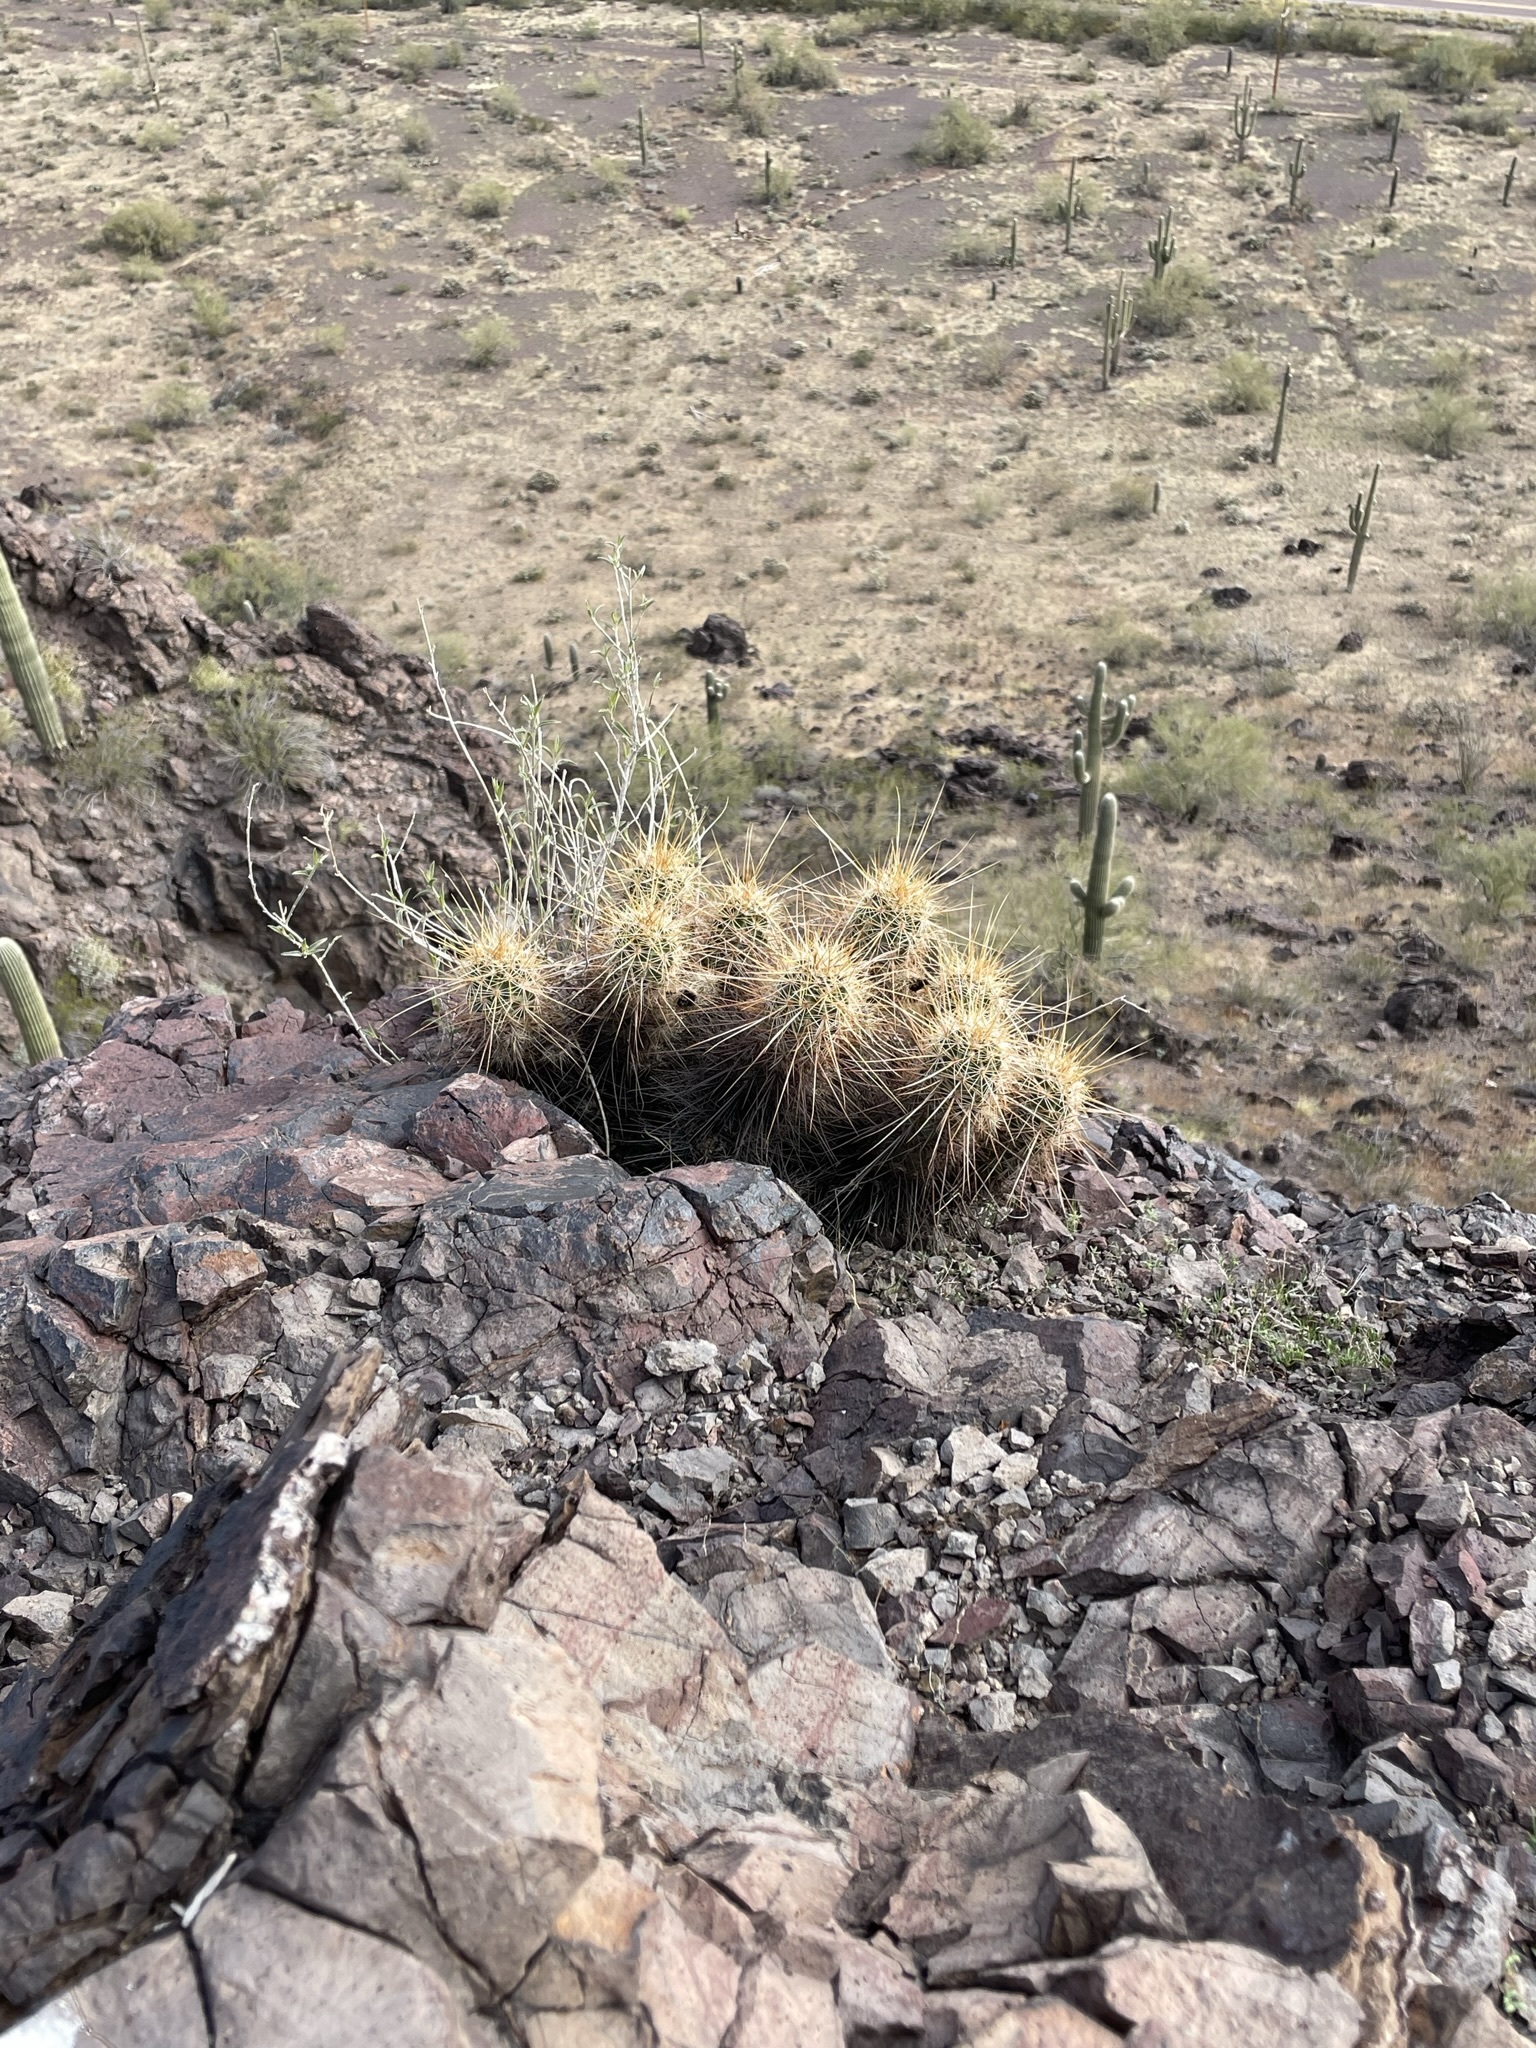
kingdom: Plantae
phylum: Tracheophyta
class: Magnoliopsida
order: Caryophyllales
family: Cactaceae
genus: Echinocereus
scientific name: Echinocereus engelmannii
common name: Engelmann's hedgehog cactus
